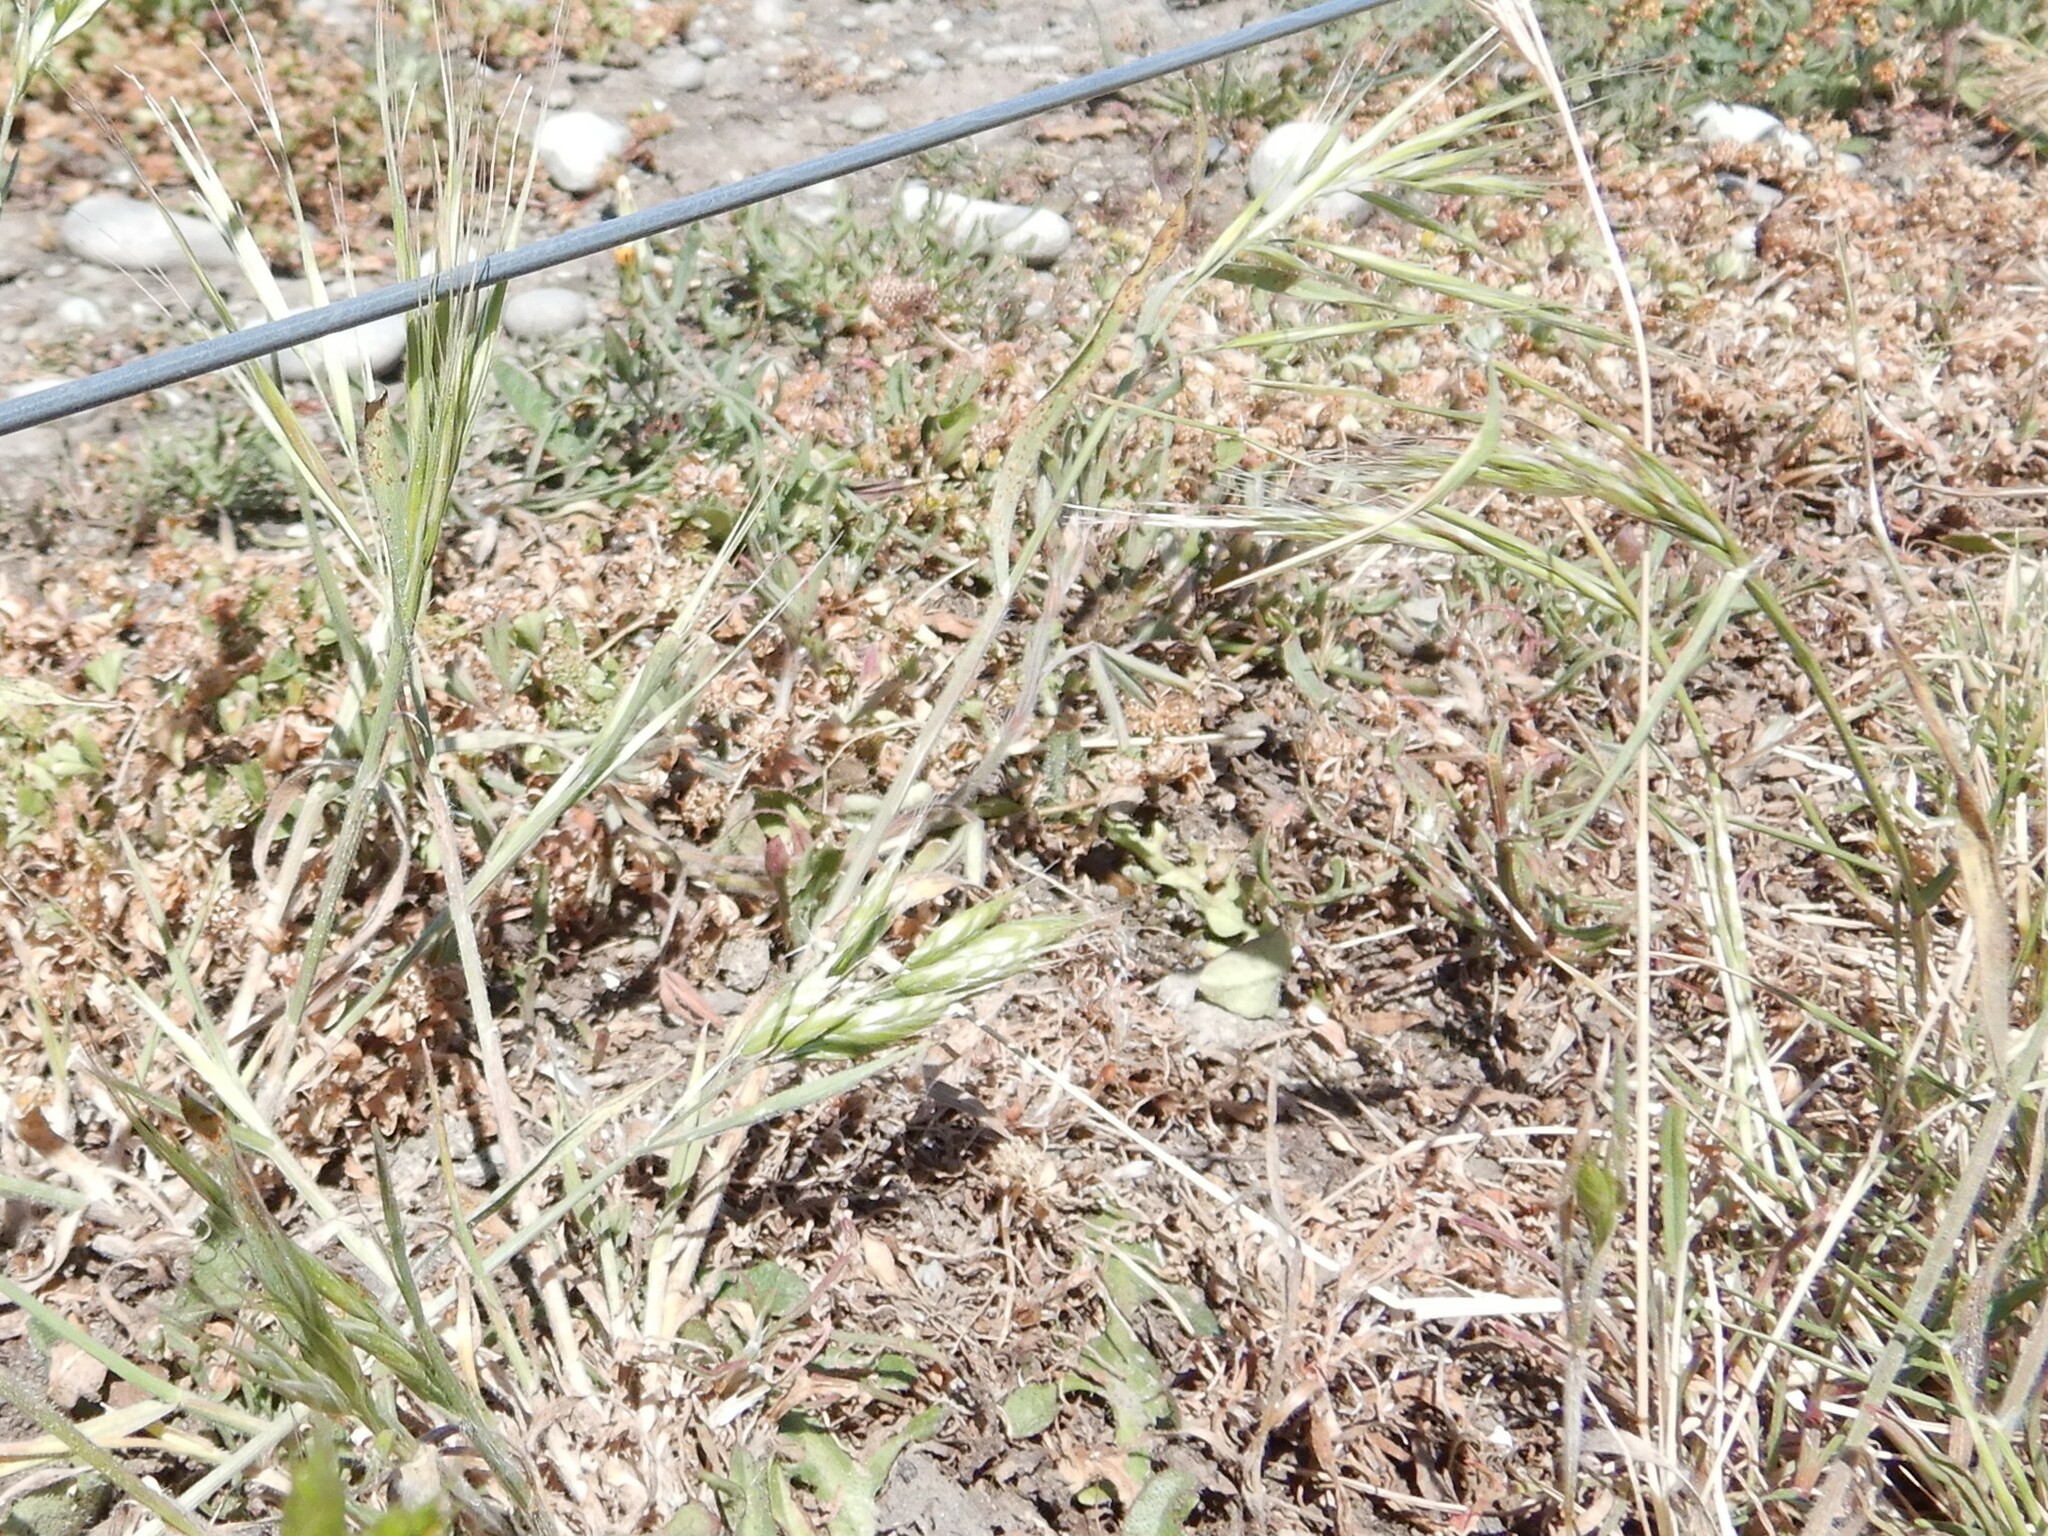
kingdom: Plantae
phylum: Tracheophyta
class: Liliopsida
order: Poales
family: Poaceae
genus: Bromus
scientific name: Bromus diandrus
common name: Ripgut brome
